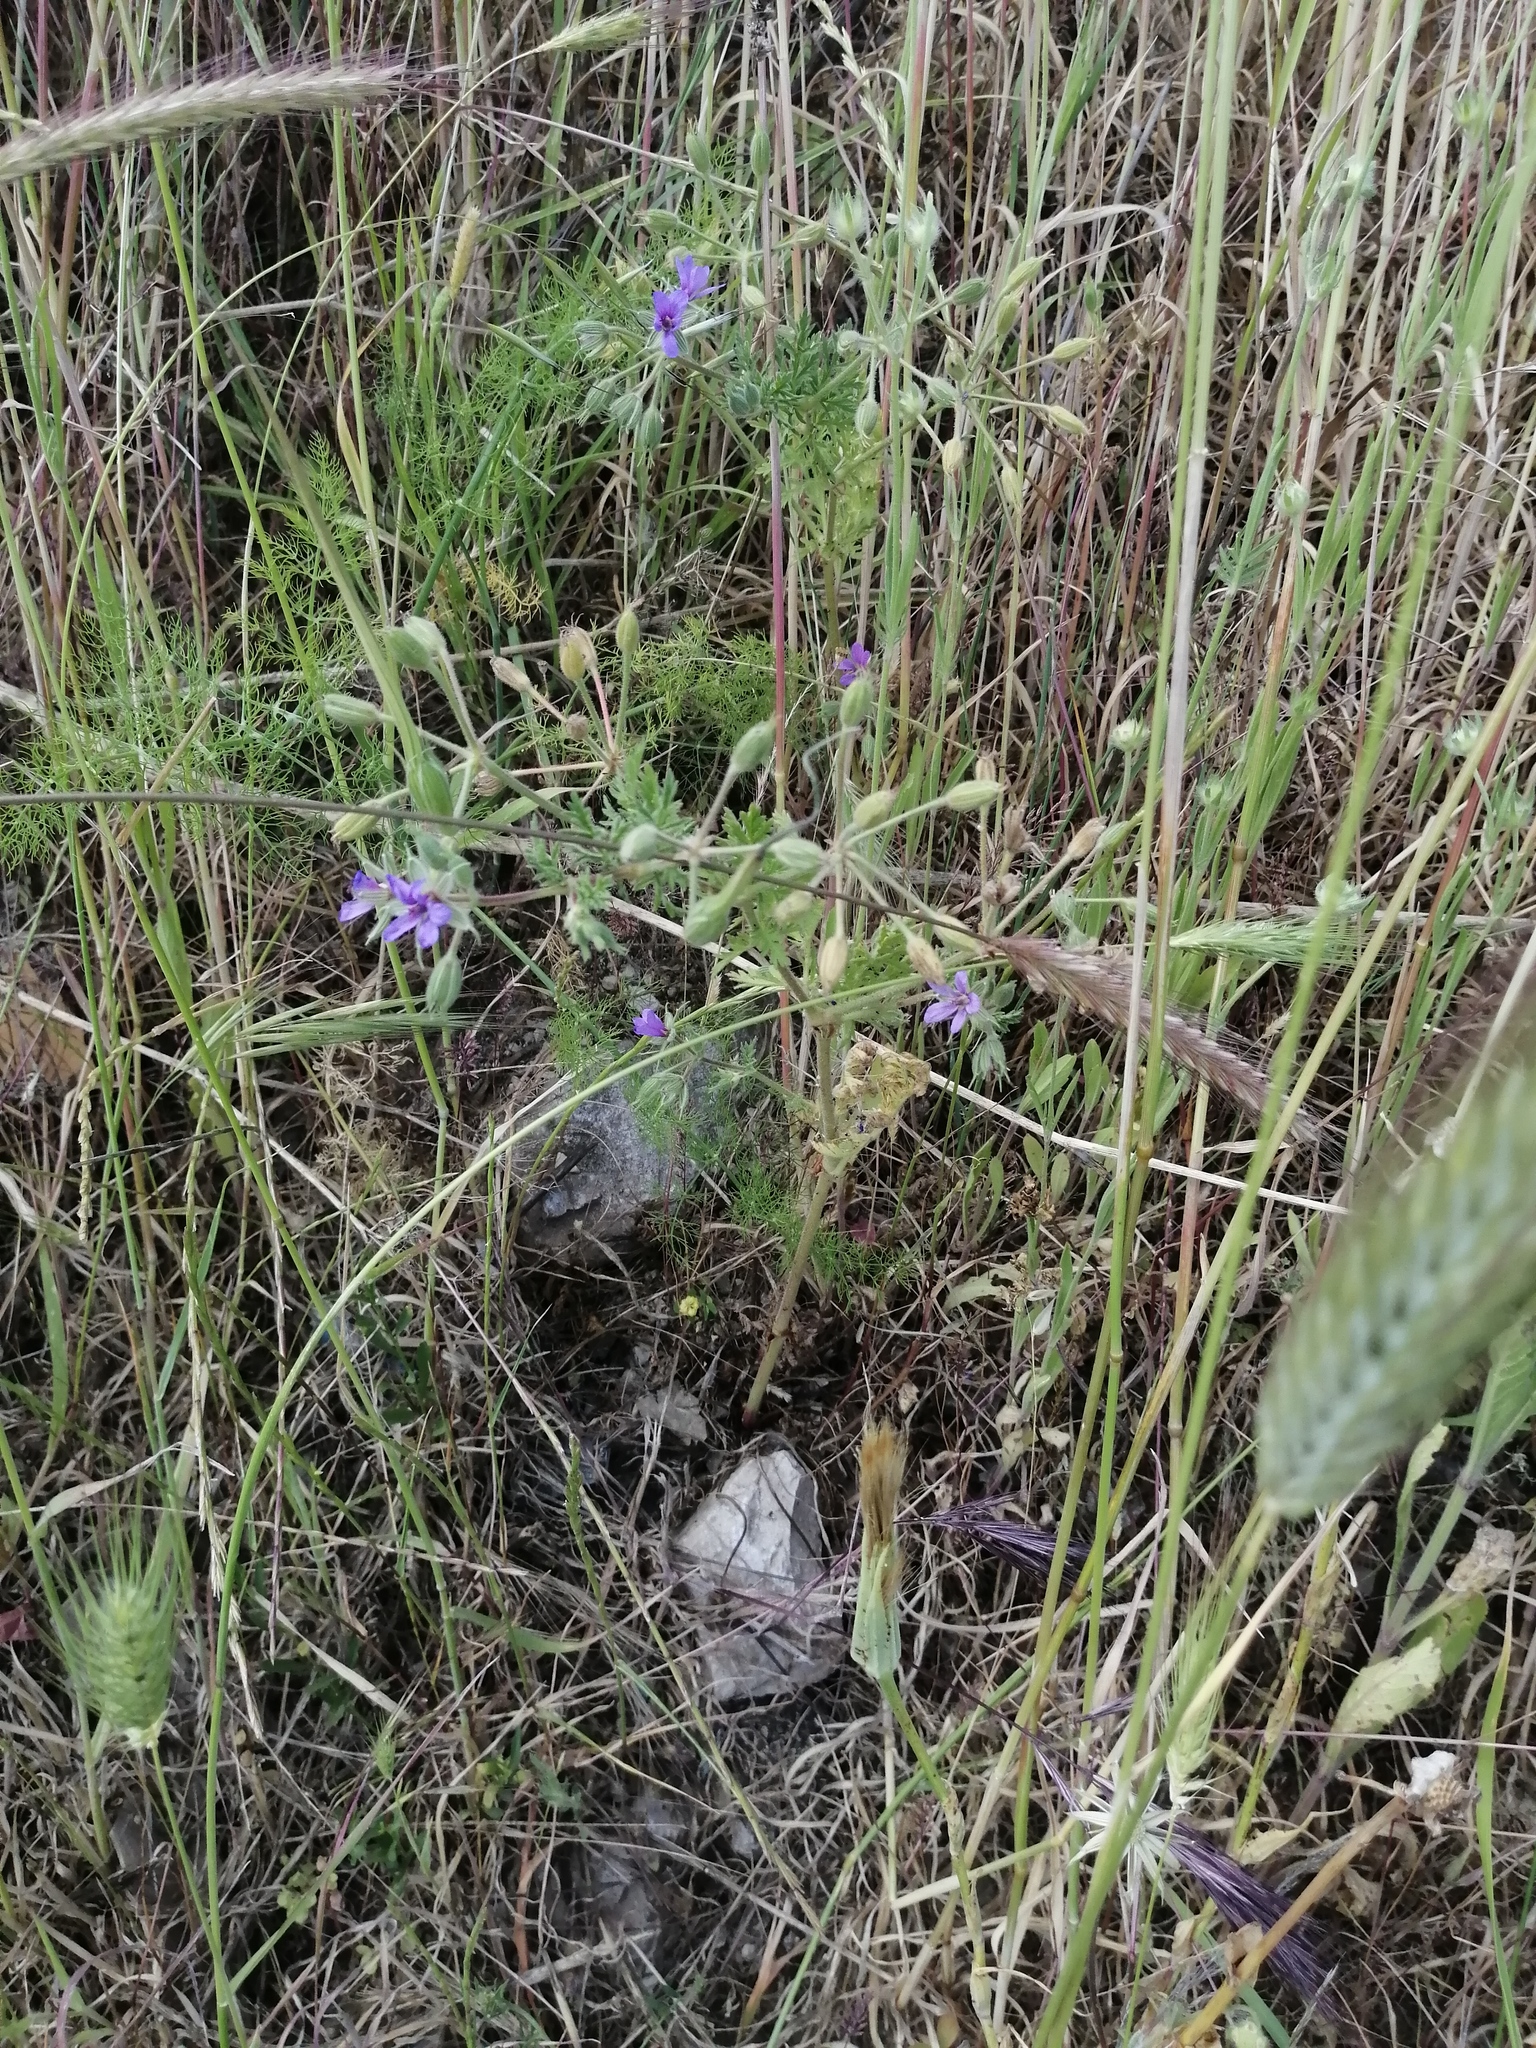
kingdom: Plantae
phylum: Tracheophyta
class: Magnoliopsida
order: Geraniales
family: Geraniaceae
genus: Erodium
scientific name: Erodium ciconium
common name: Common stork's bill
